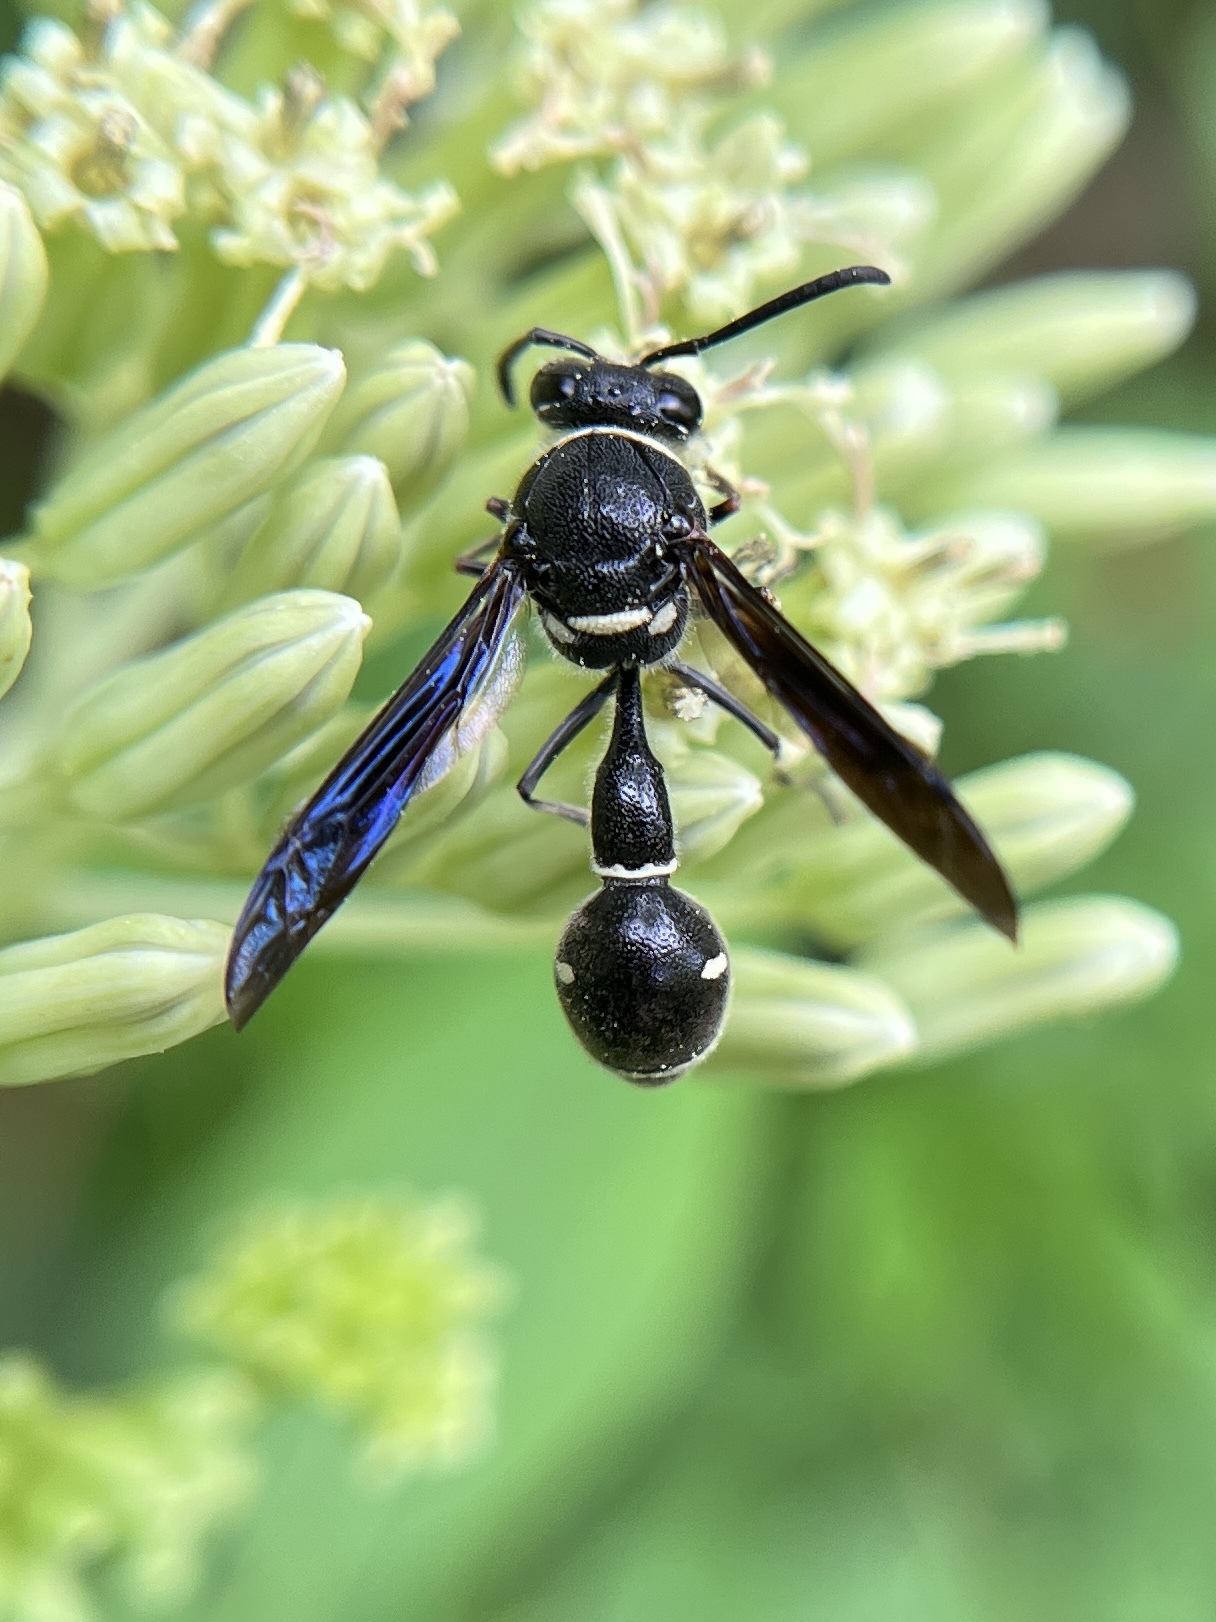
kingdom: Animalia
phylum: Arthropoda
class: Insecta
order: Hymenoptera
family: Vespidae
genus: Eumenes
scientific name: Eumenes fraternus
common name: Fraternal potter wasp
